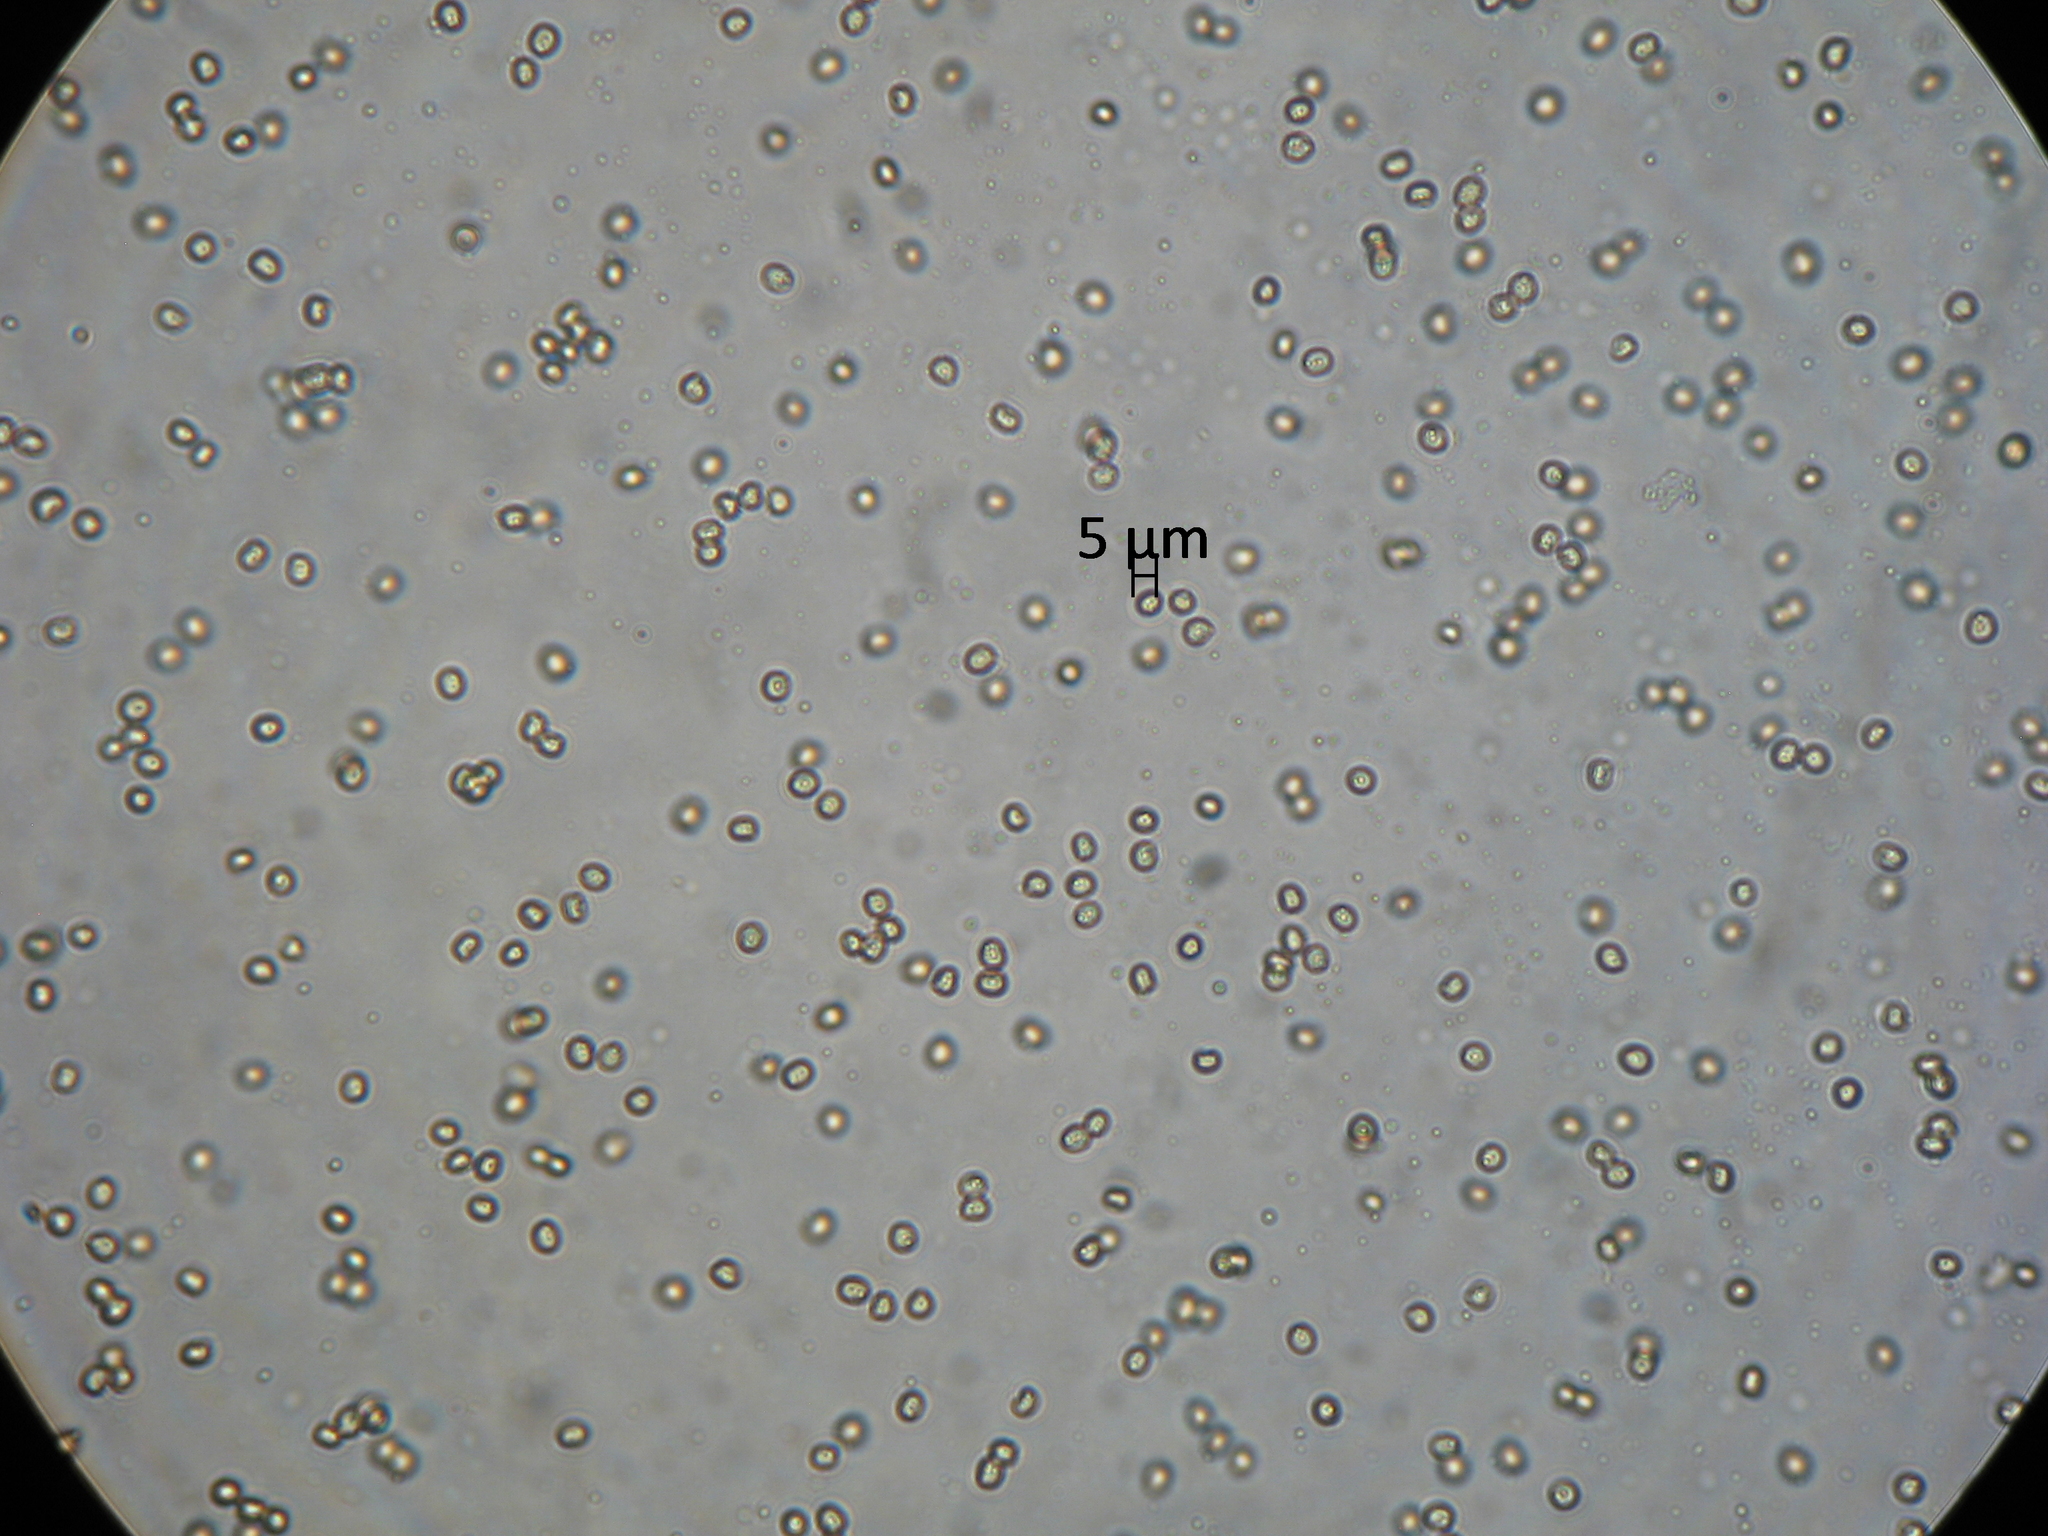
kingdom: Fungi
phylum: Basidiomycota
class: Agaricomycetes
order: Agaricales
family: Pluteaceae
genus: Pluteus
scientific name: Pluteus similis
